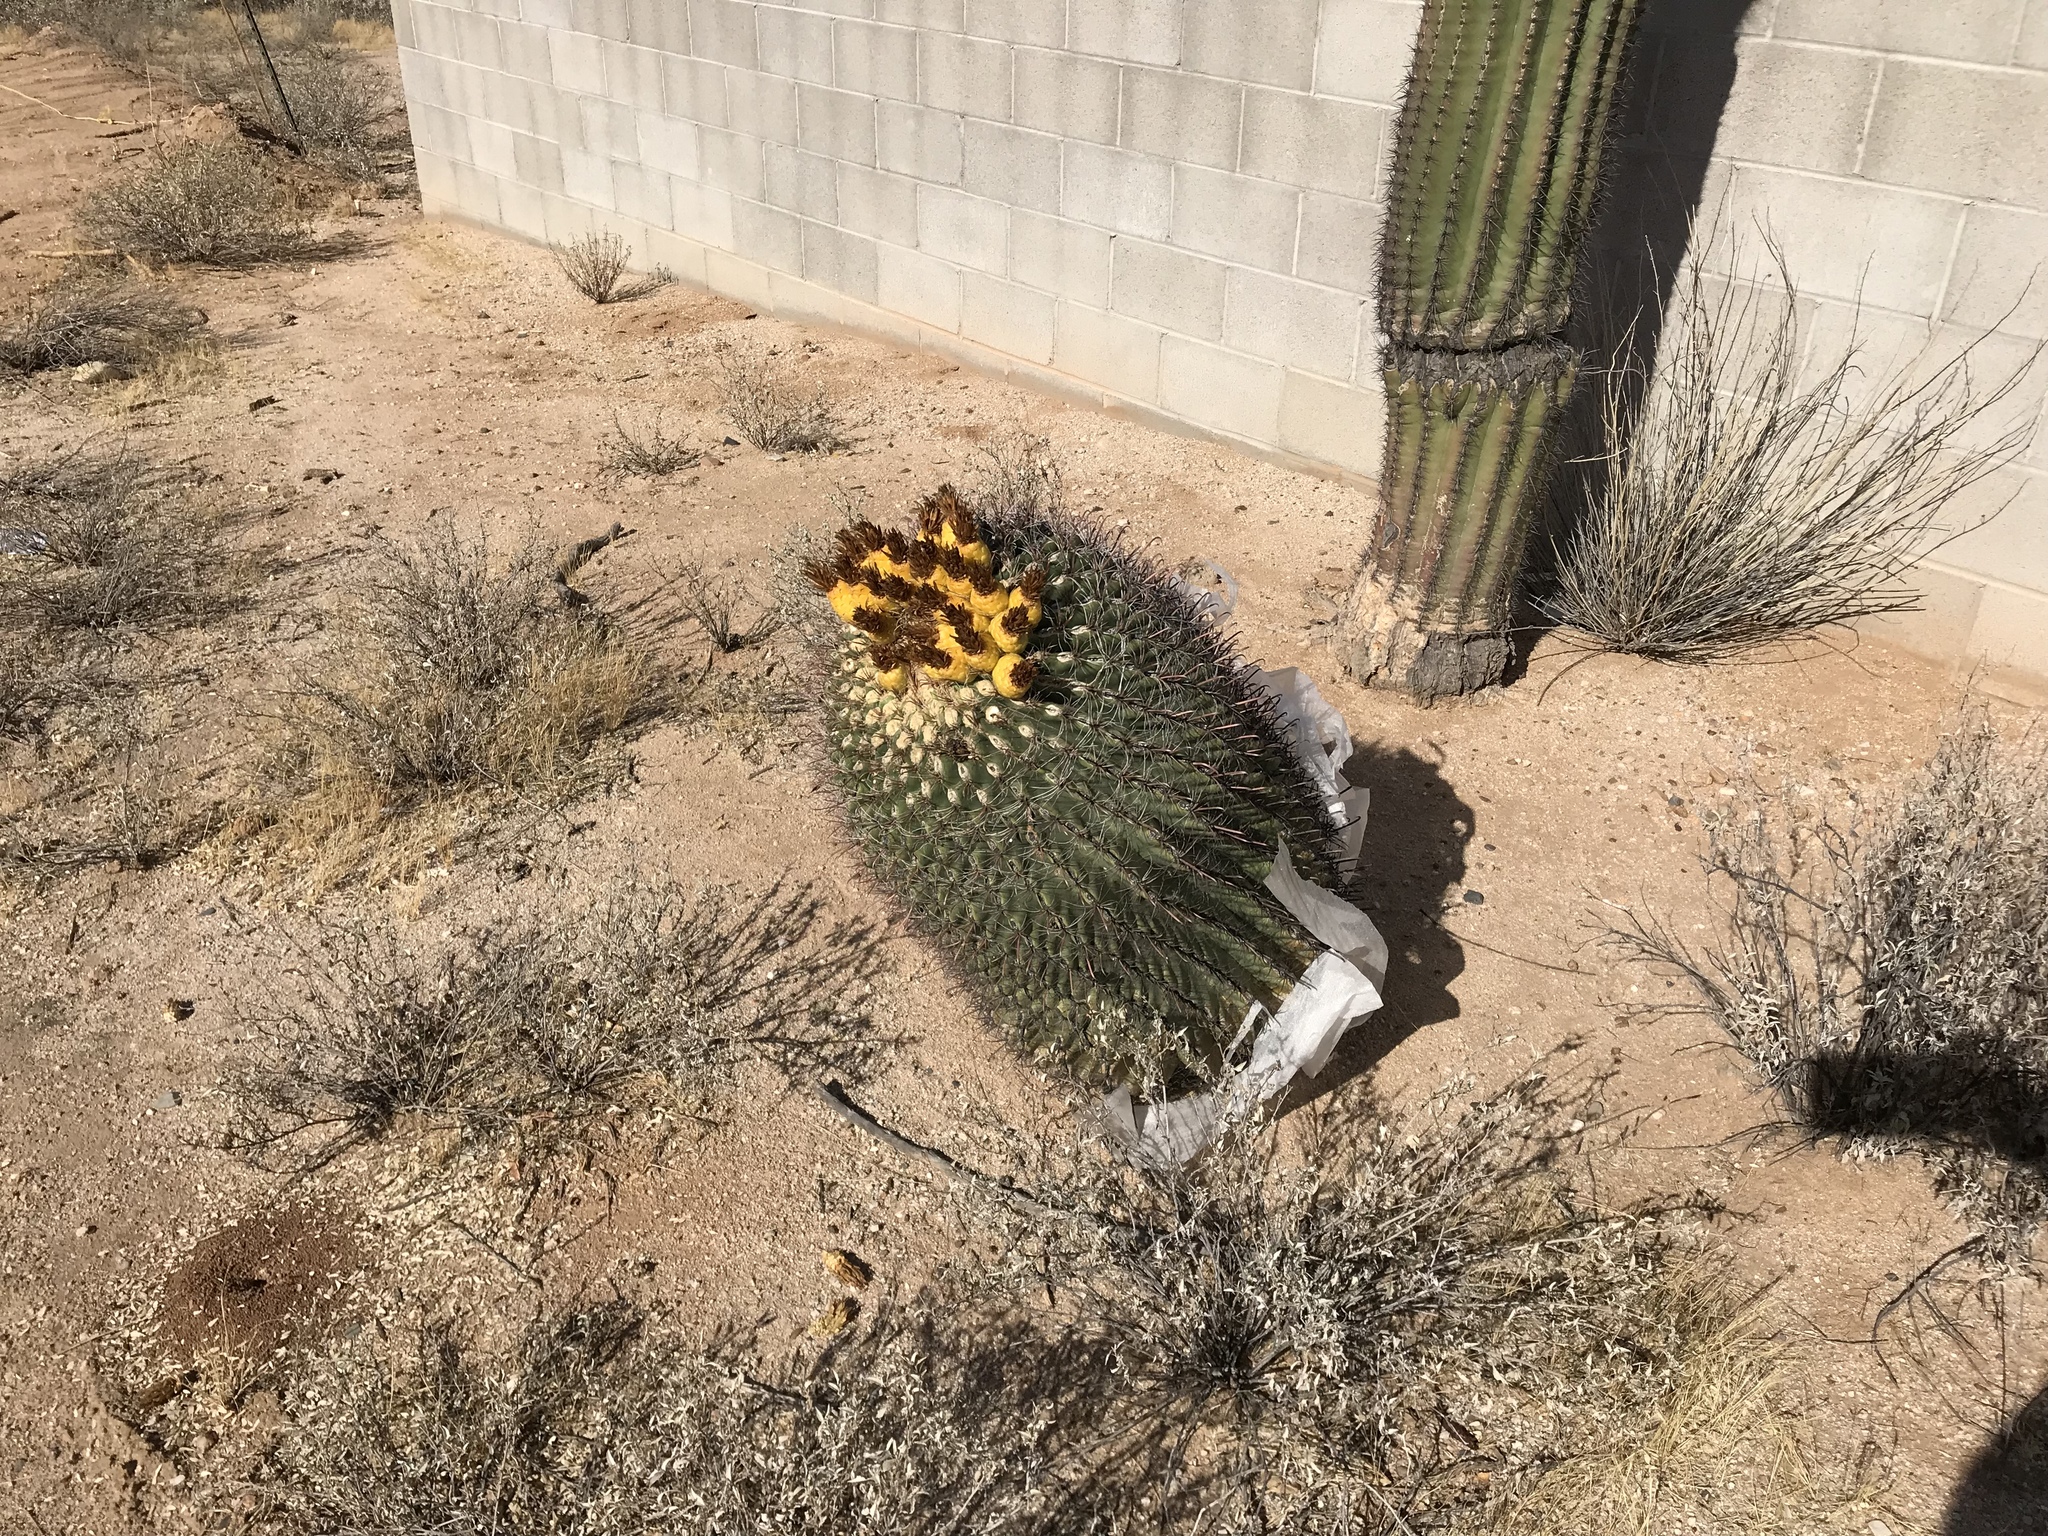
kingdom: Plantae
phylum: Tracheophyta
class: Magnoliopsida
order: Caryophyllales
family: Cactaceae
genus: Ferocactus
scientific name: Ferocactus wislizeni
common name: Candy barrel cactus
